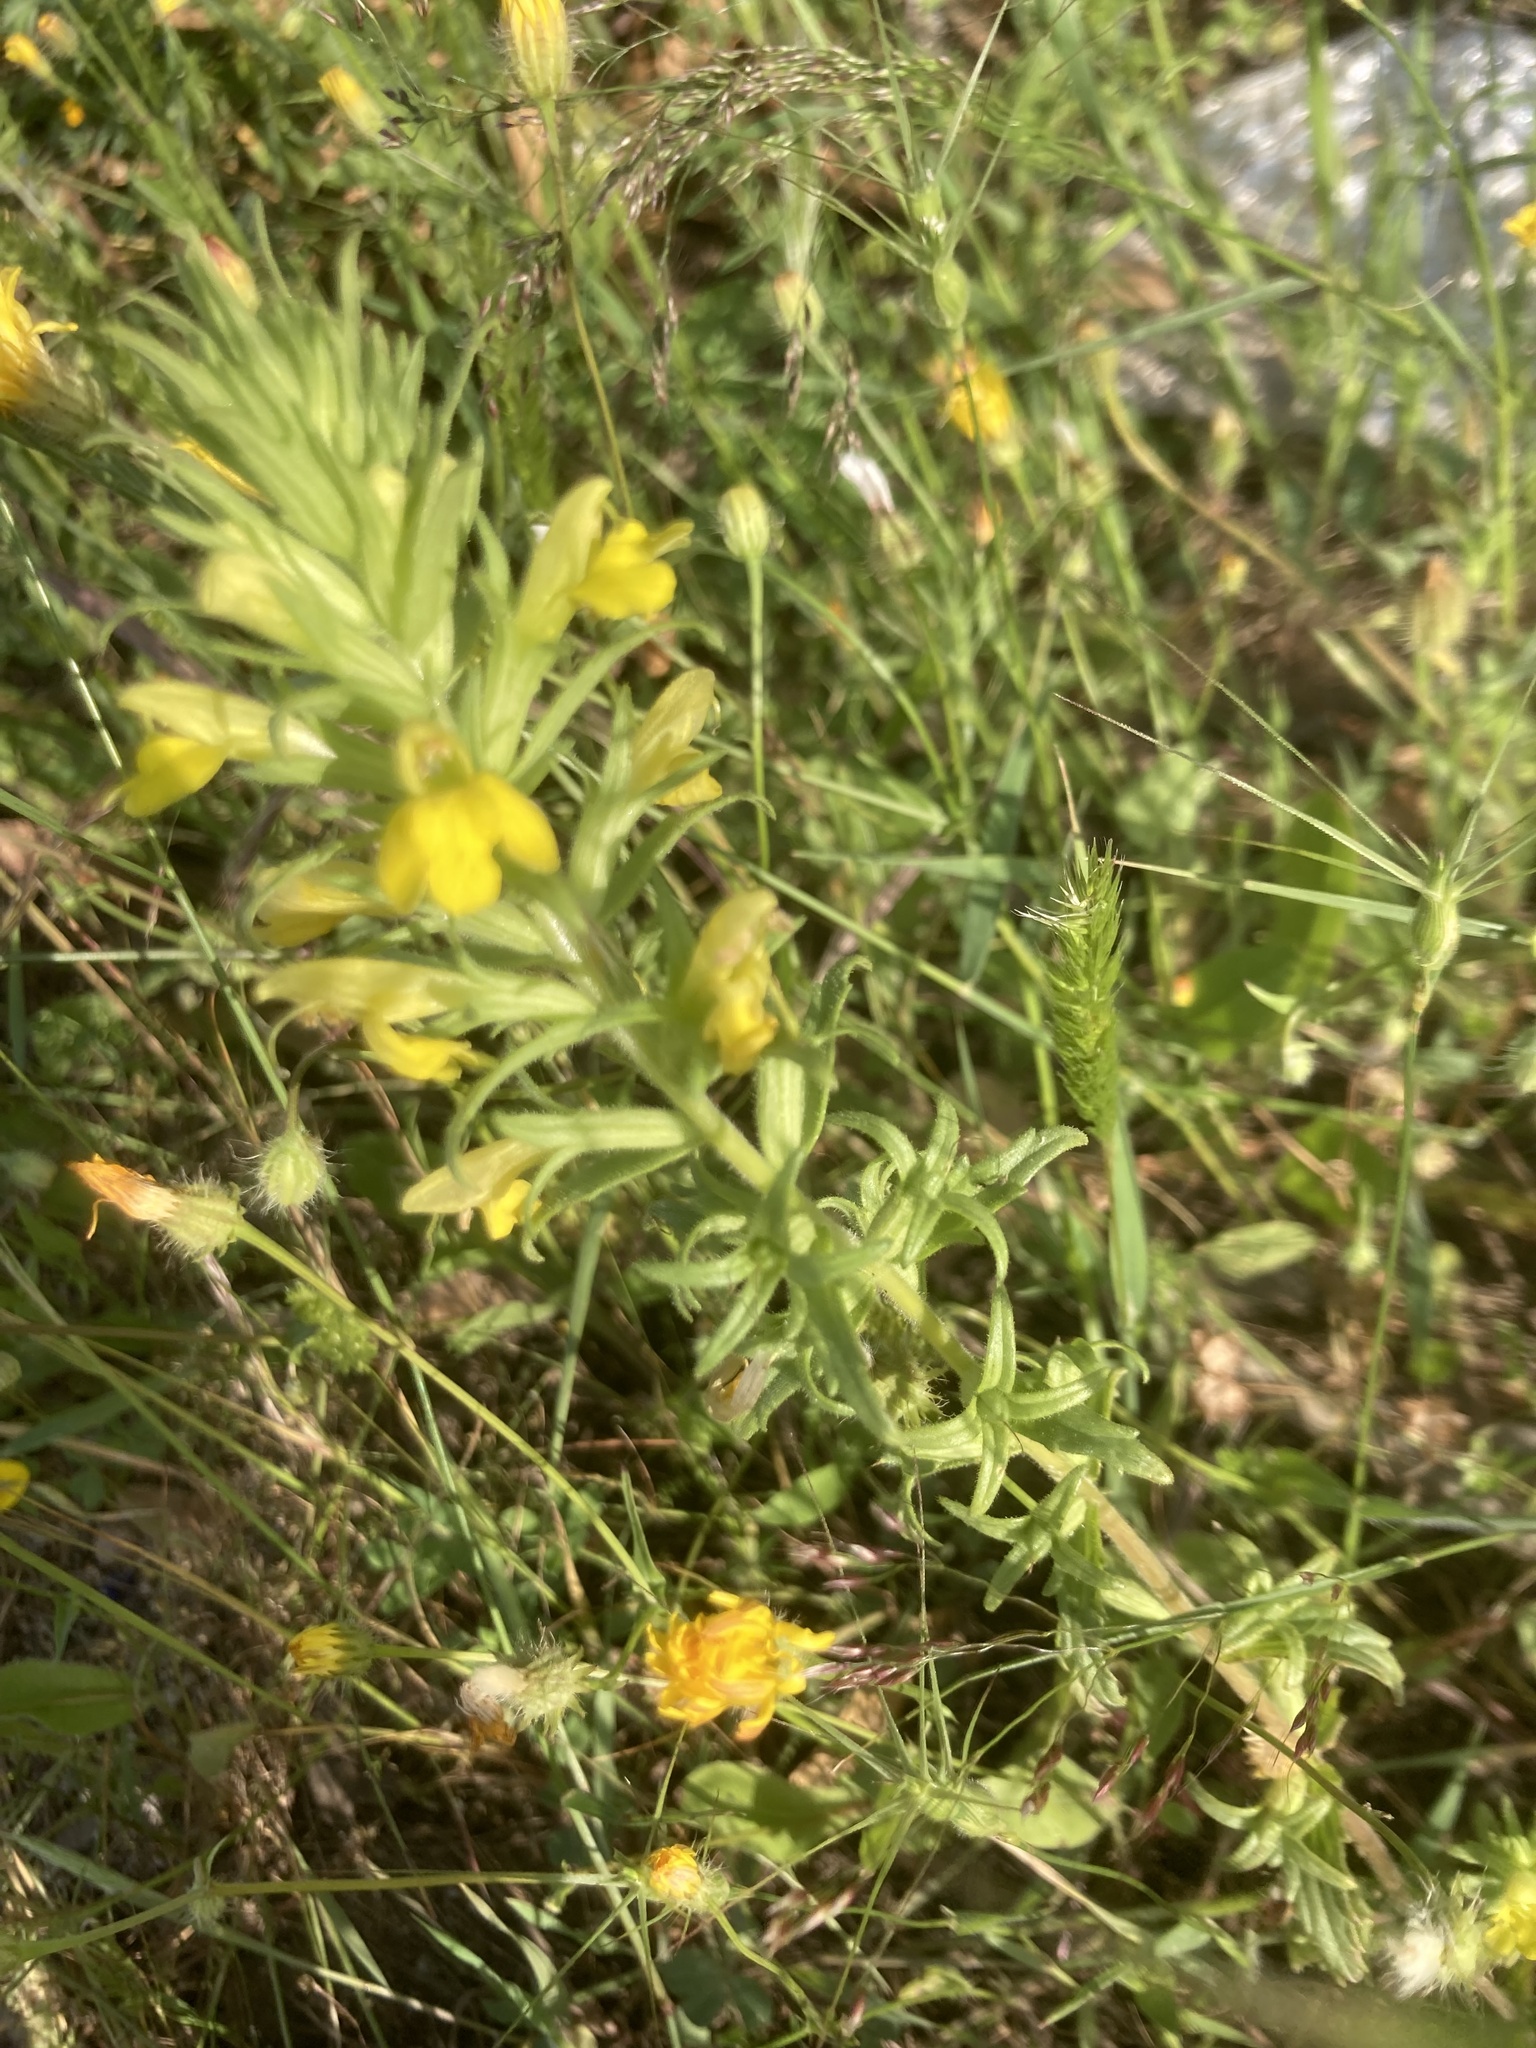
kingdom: Plantae
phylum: Tracheophyta
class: Magnoliopsida
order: Lamiales
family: Orobanchaceae
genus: Bellardia
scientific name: Bellardia viscosa
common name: Sticky parentucellia
